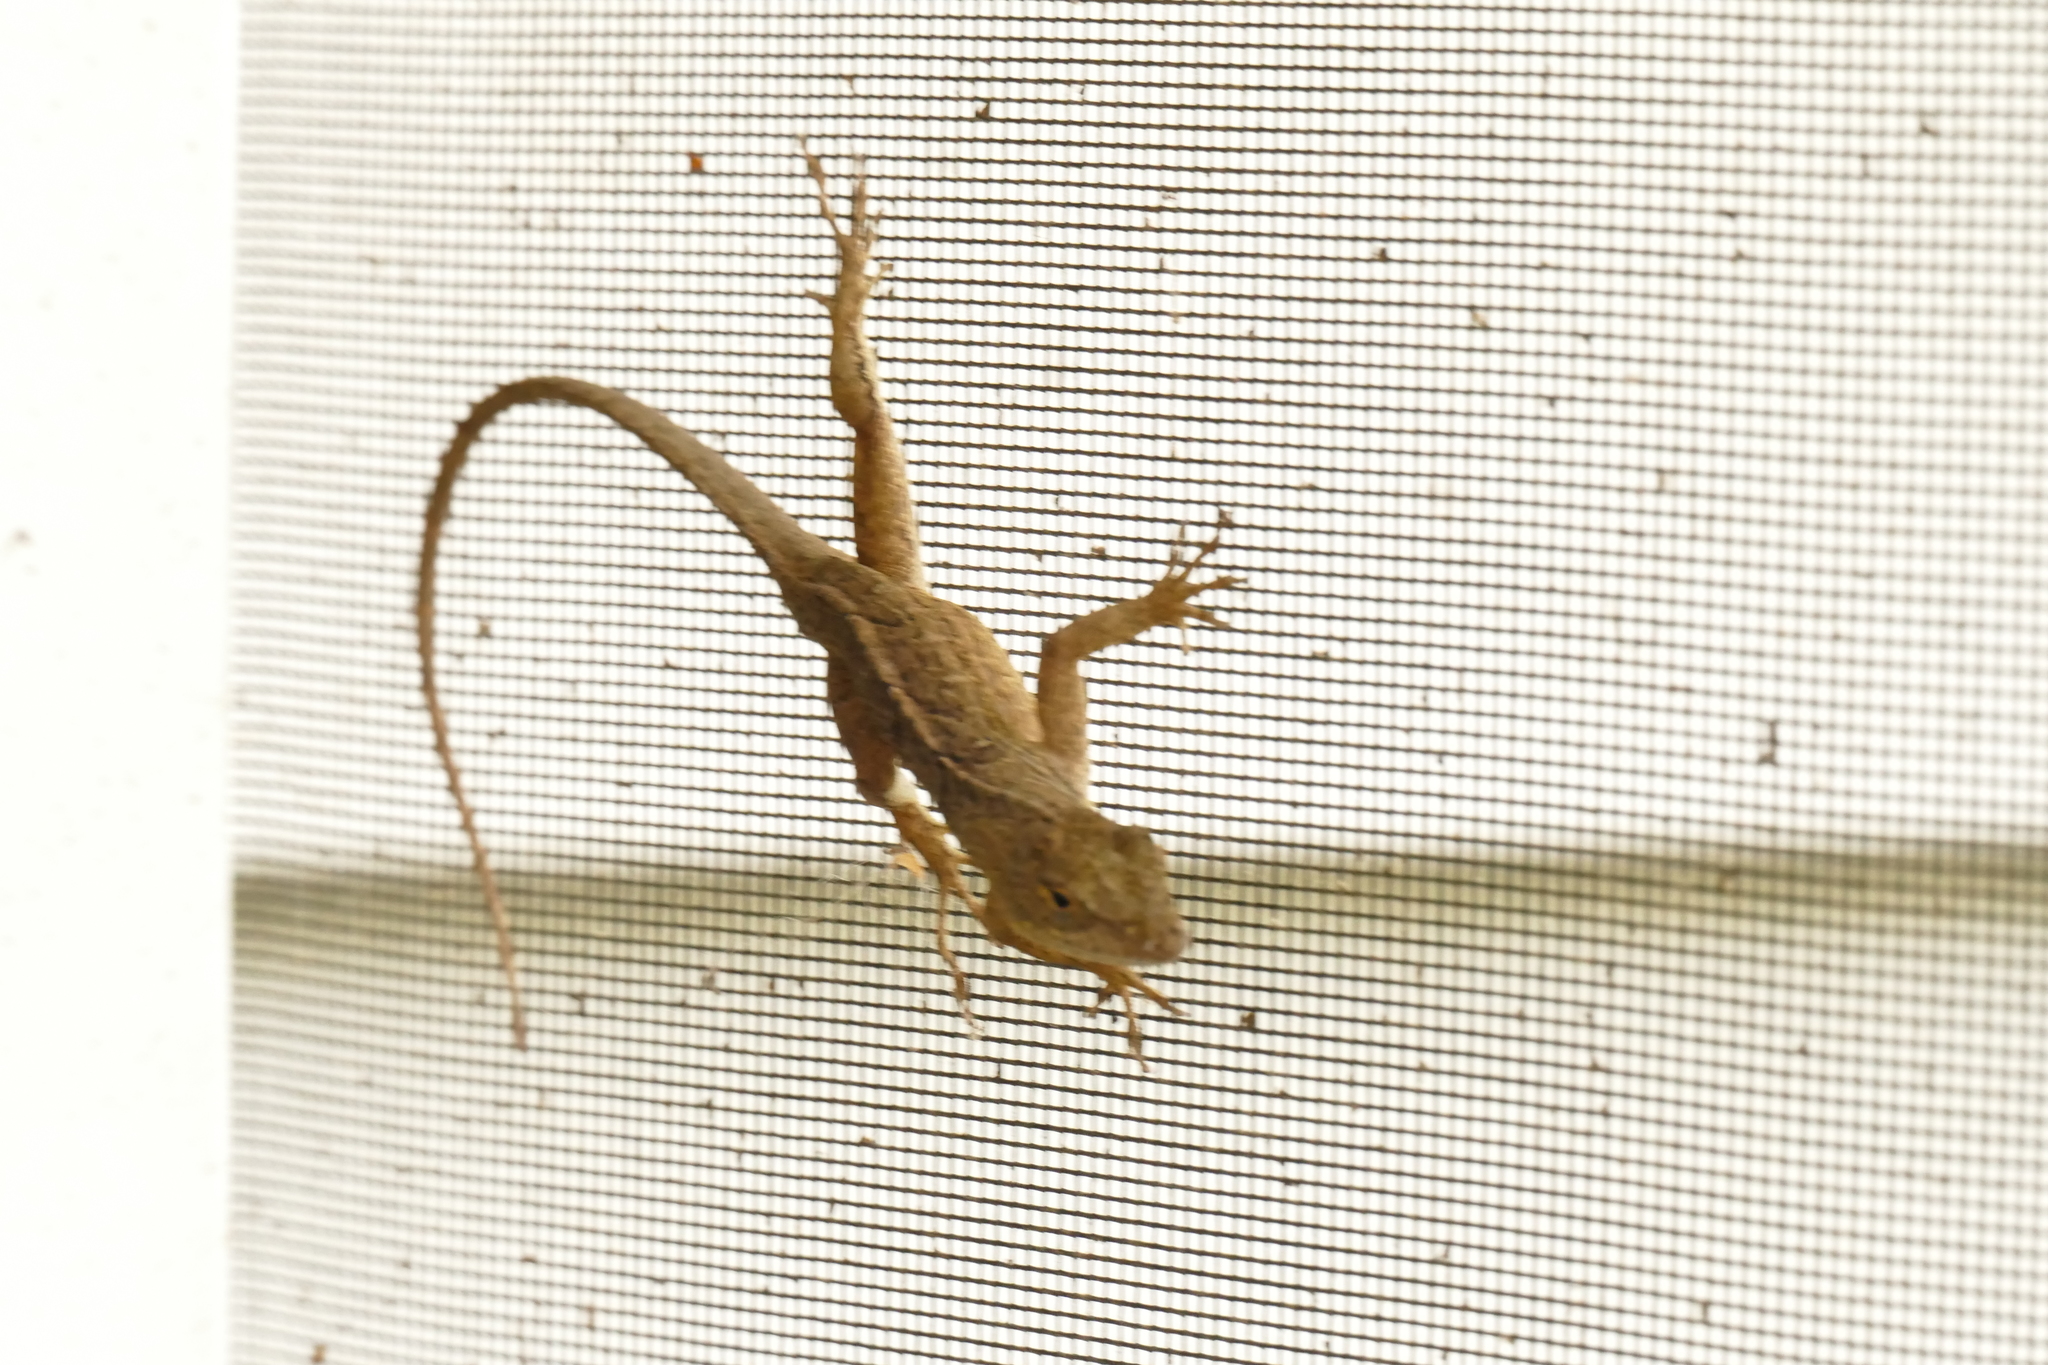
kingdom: Animalia
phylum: Chordata
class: Squamata
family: Dactyloidae
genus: Anolis
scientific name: Anolis sagrei
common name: Brown anole
